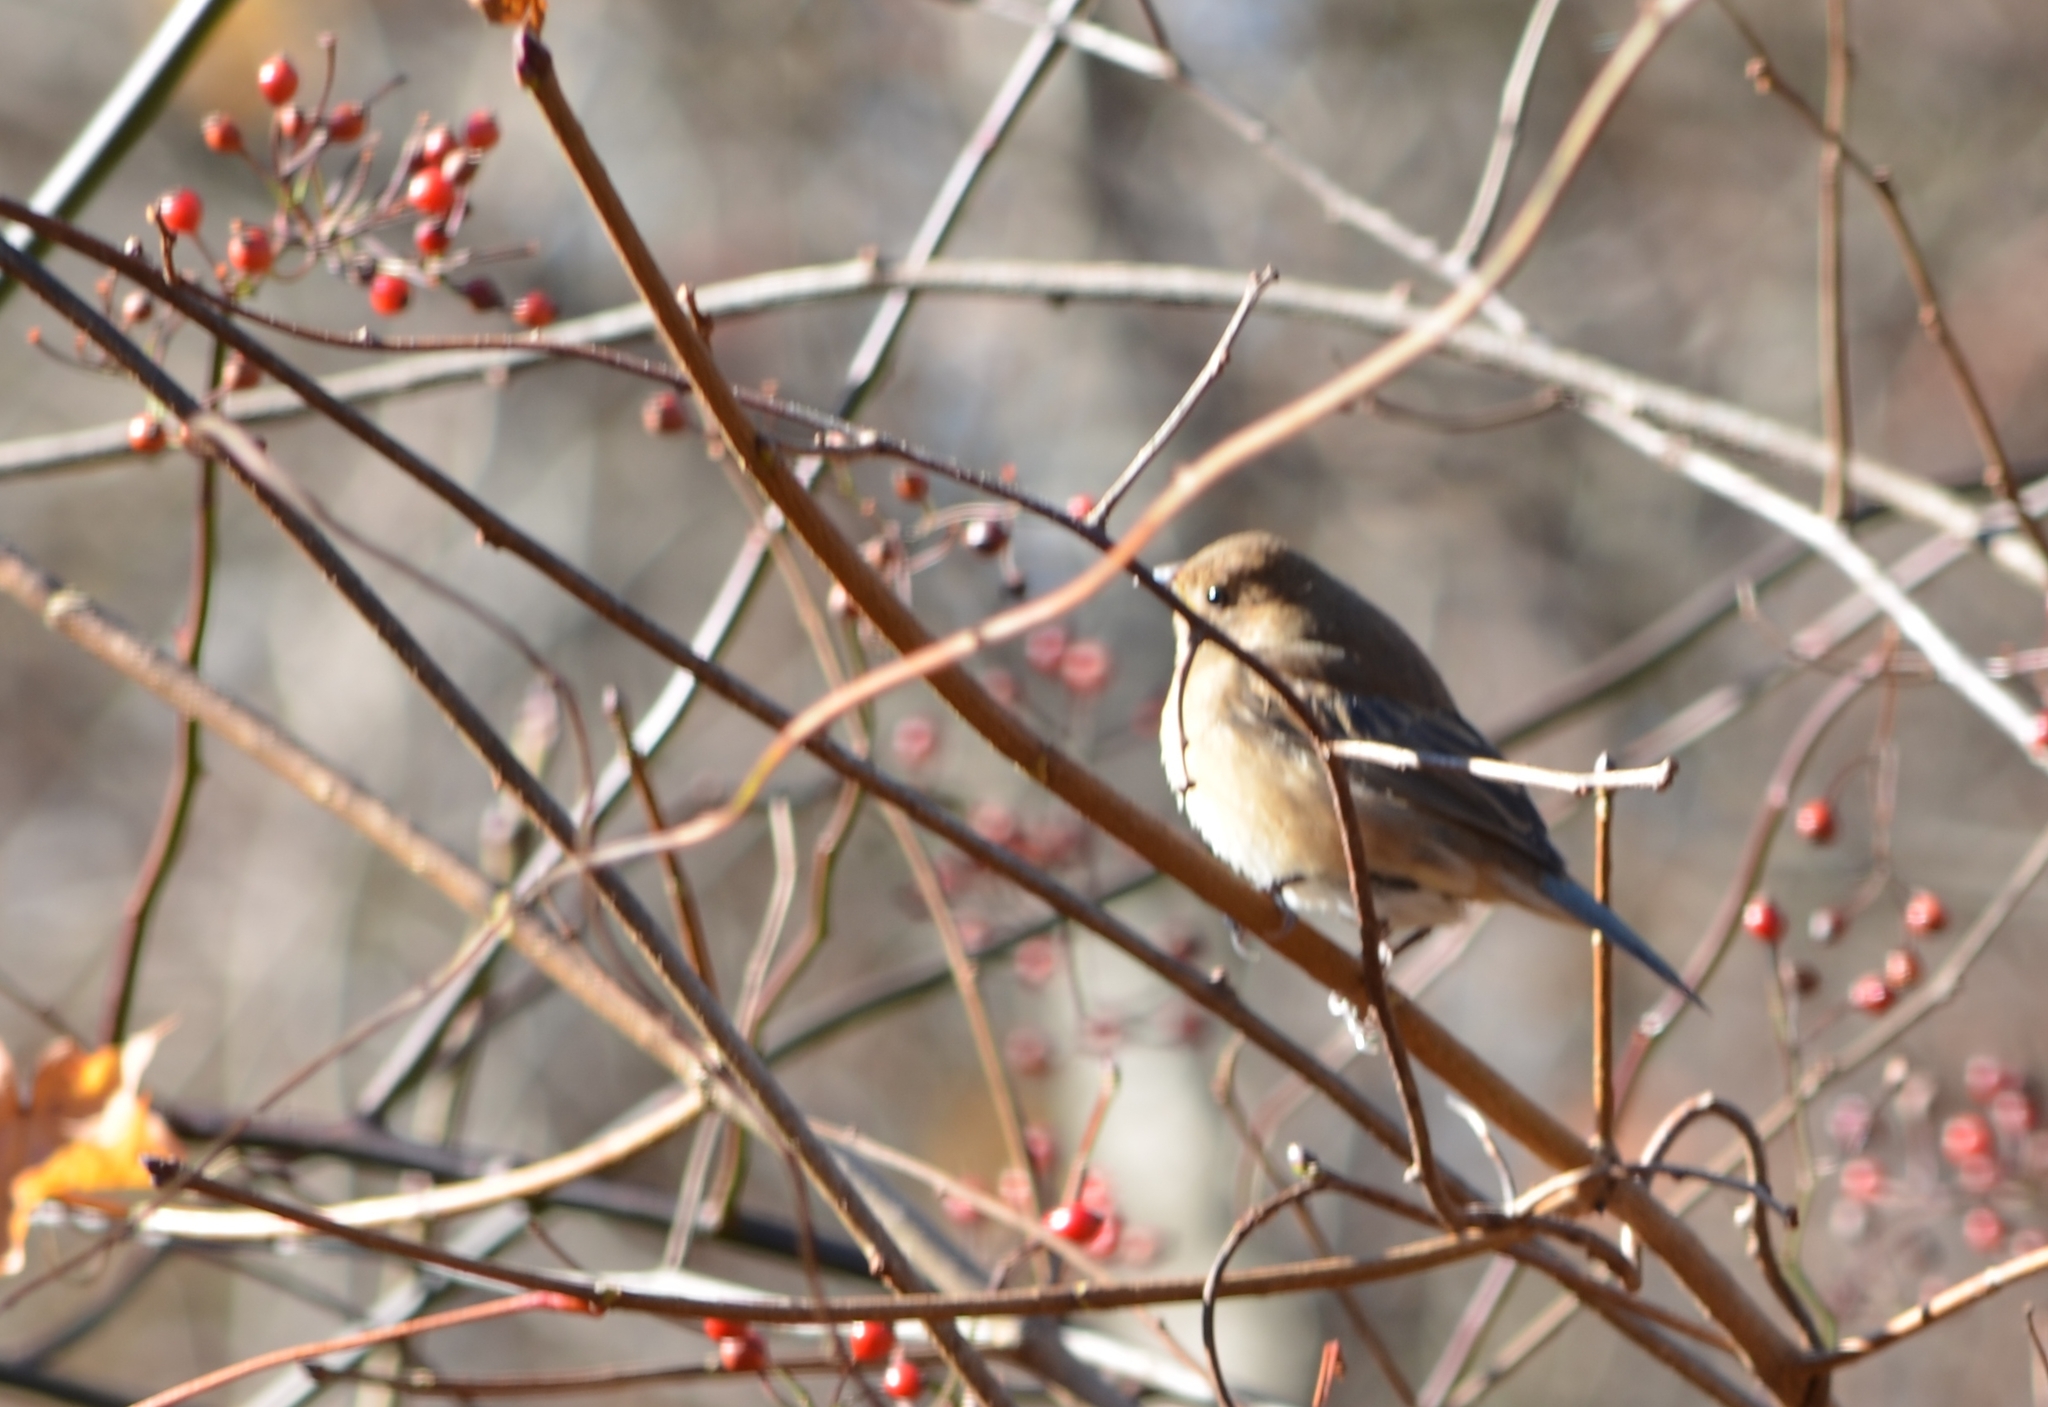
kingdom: Animalia
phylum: Chordata
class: Aves
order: Passeriformes
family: Cardinalidae
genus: Passerina
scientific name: Passerina cyanea
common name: Indigo bunting
